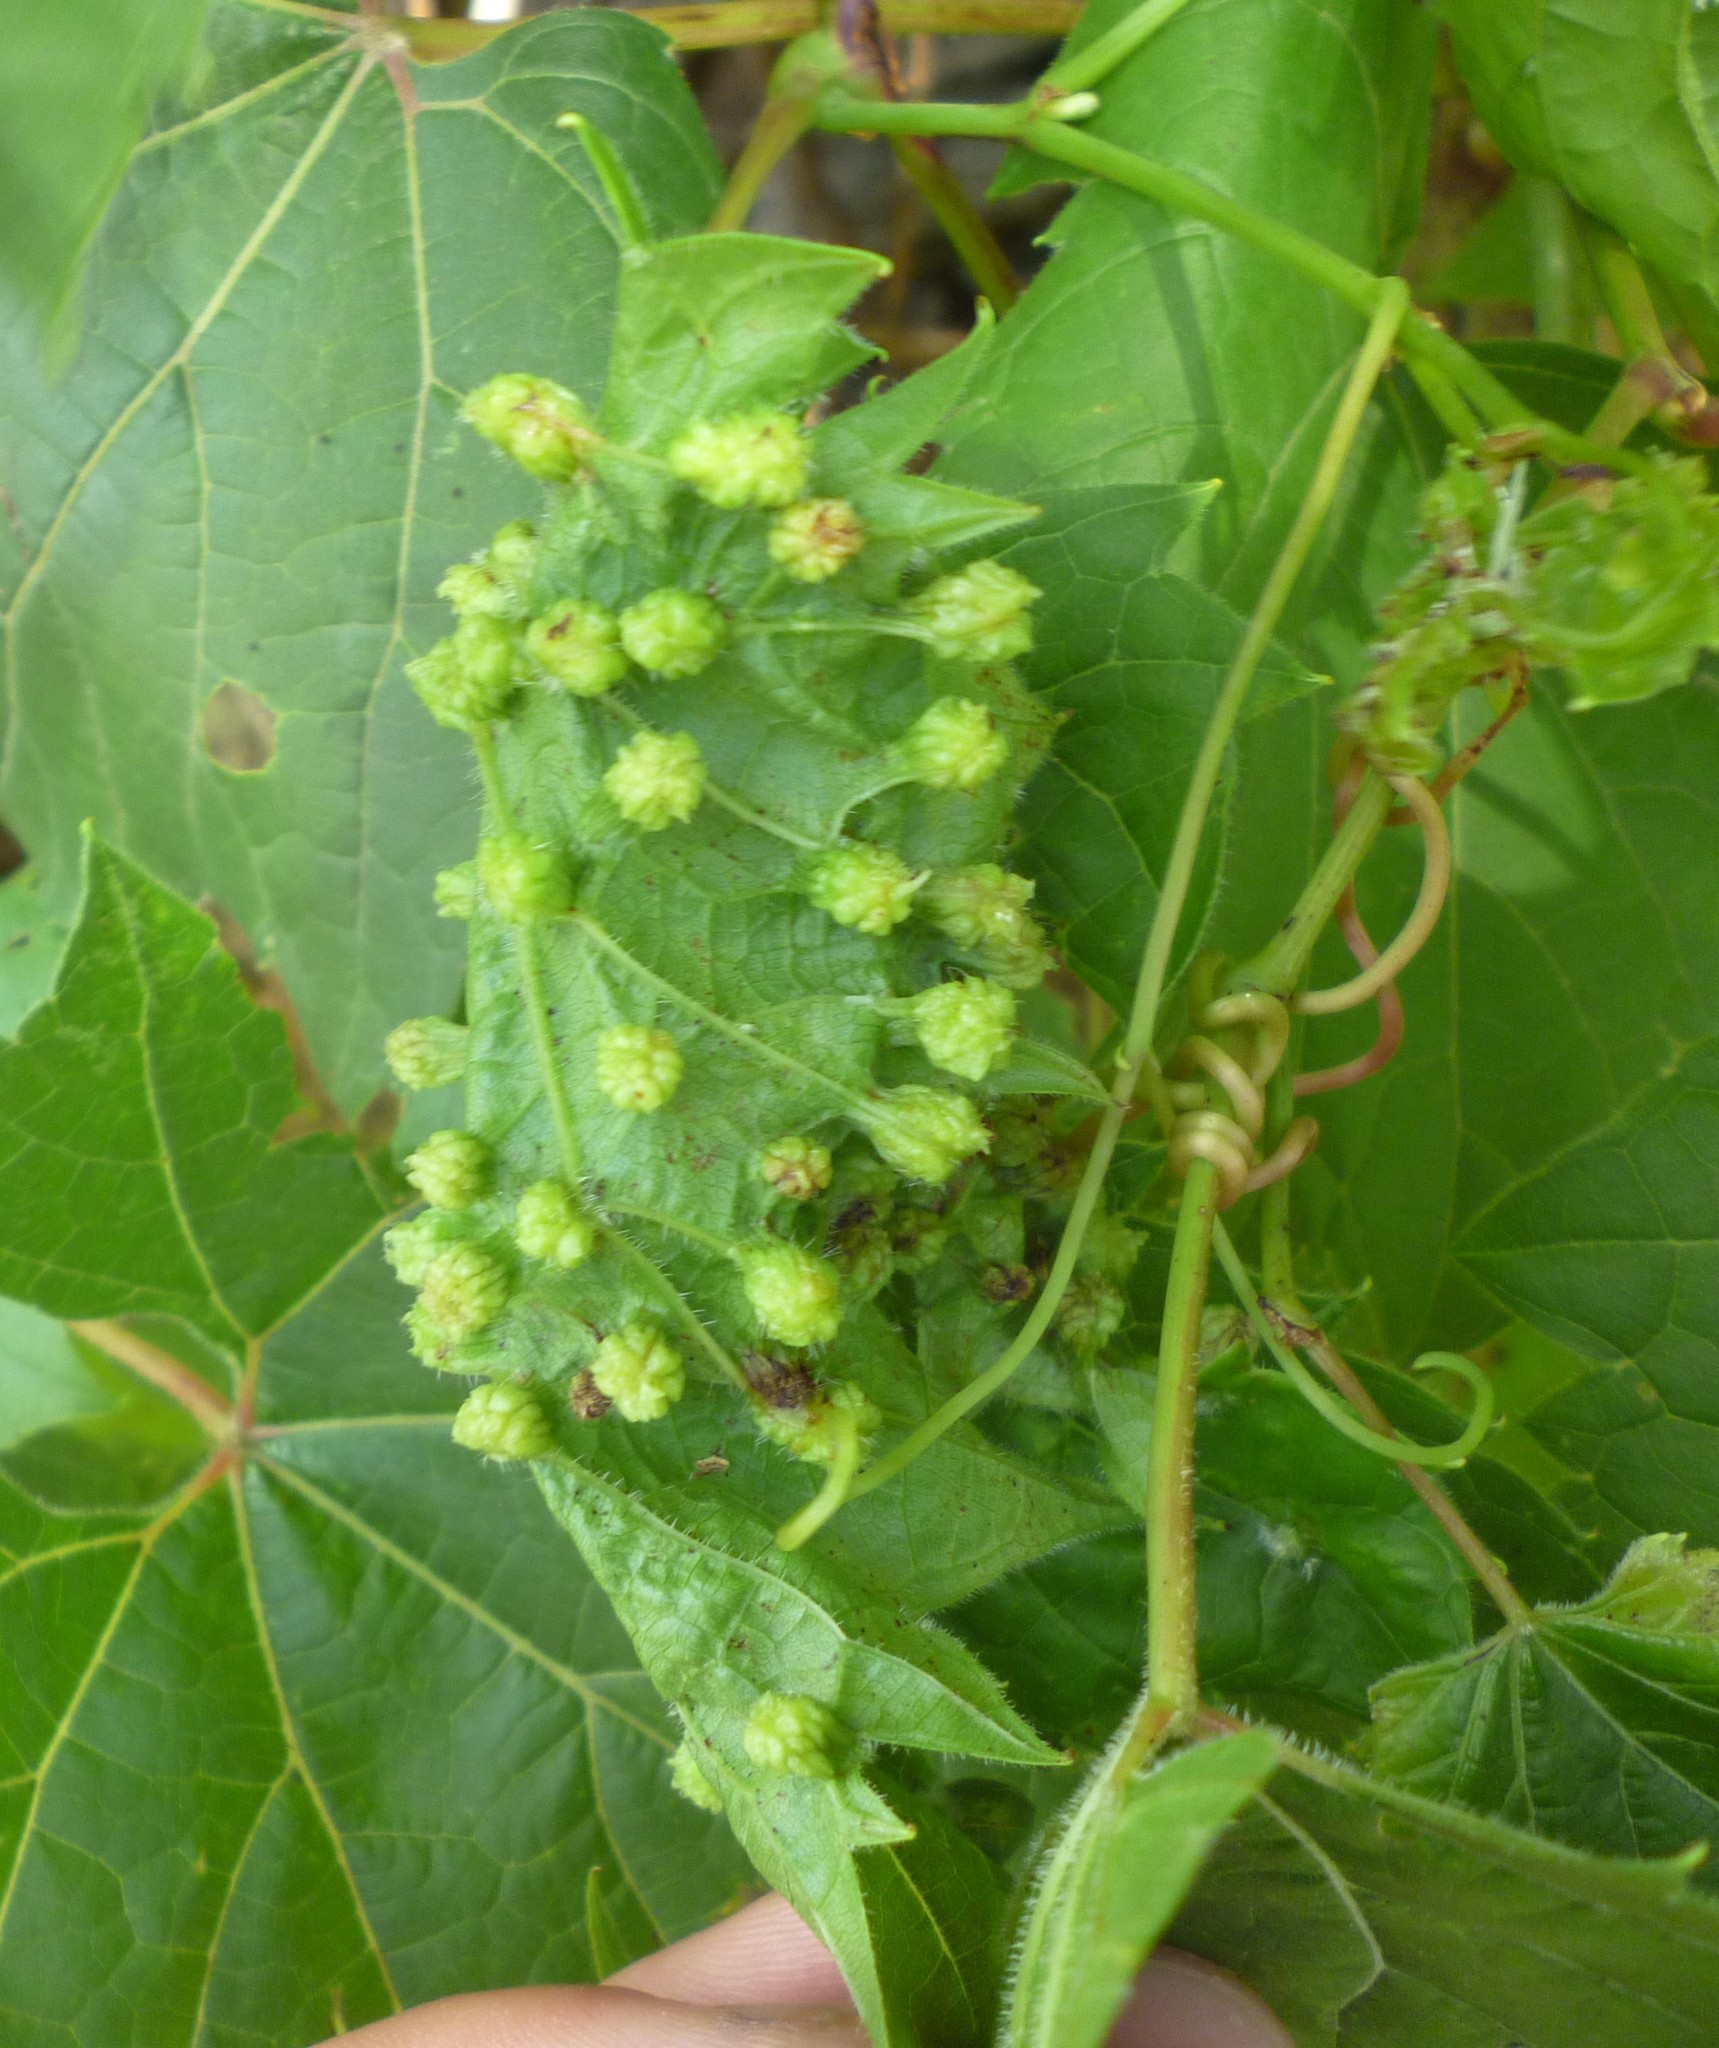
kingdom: Animalia
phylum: Arthropoda
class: Insecta
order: Hemiptera
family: Phylloxeridae
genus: Daktulosphaira
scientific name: Daktulosphaira vitifoliae
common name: Grape phylloxera
